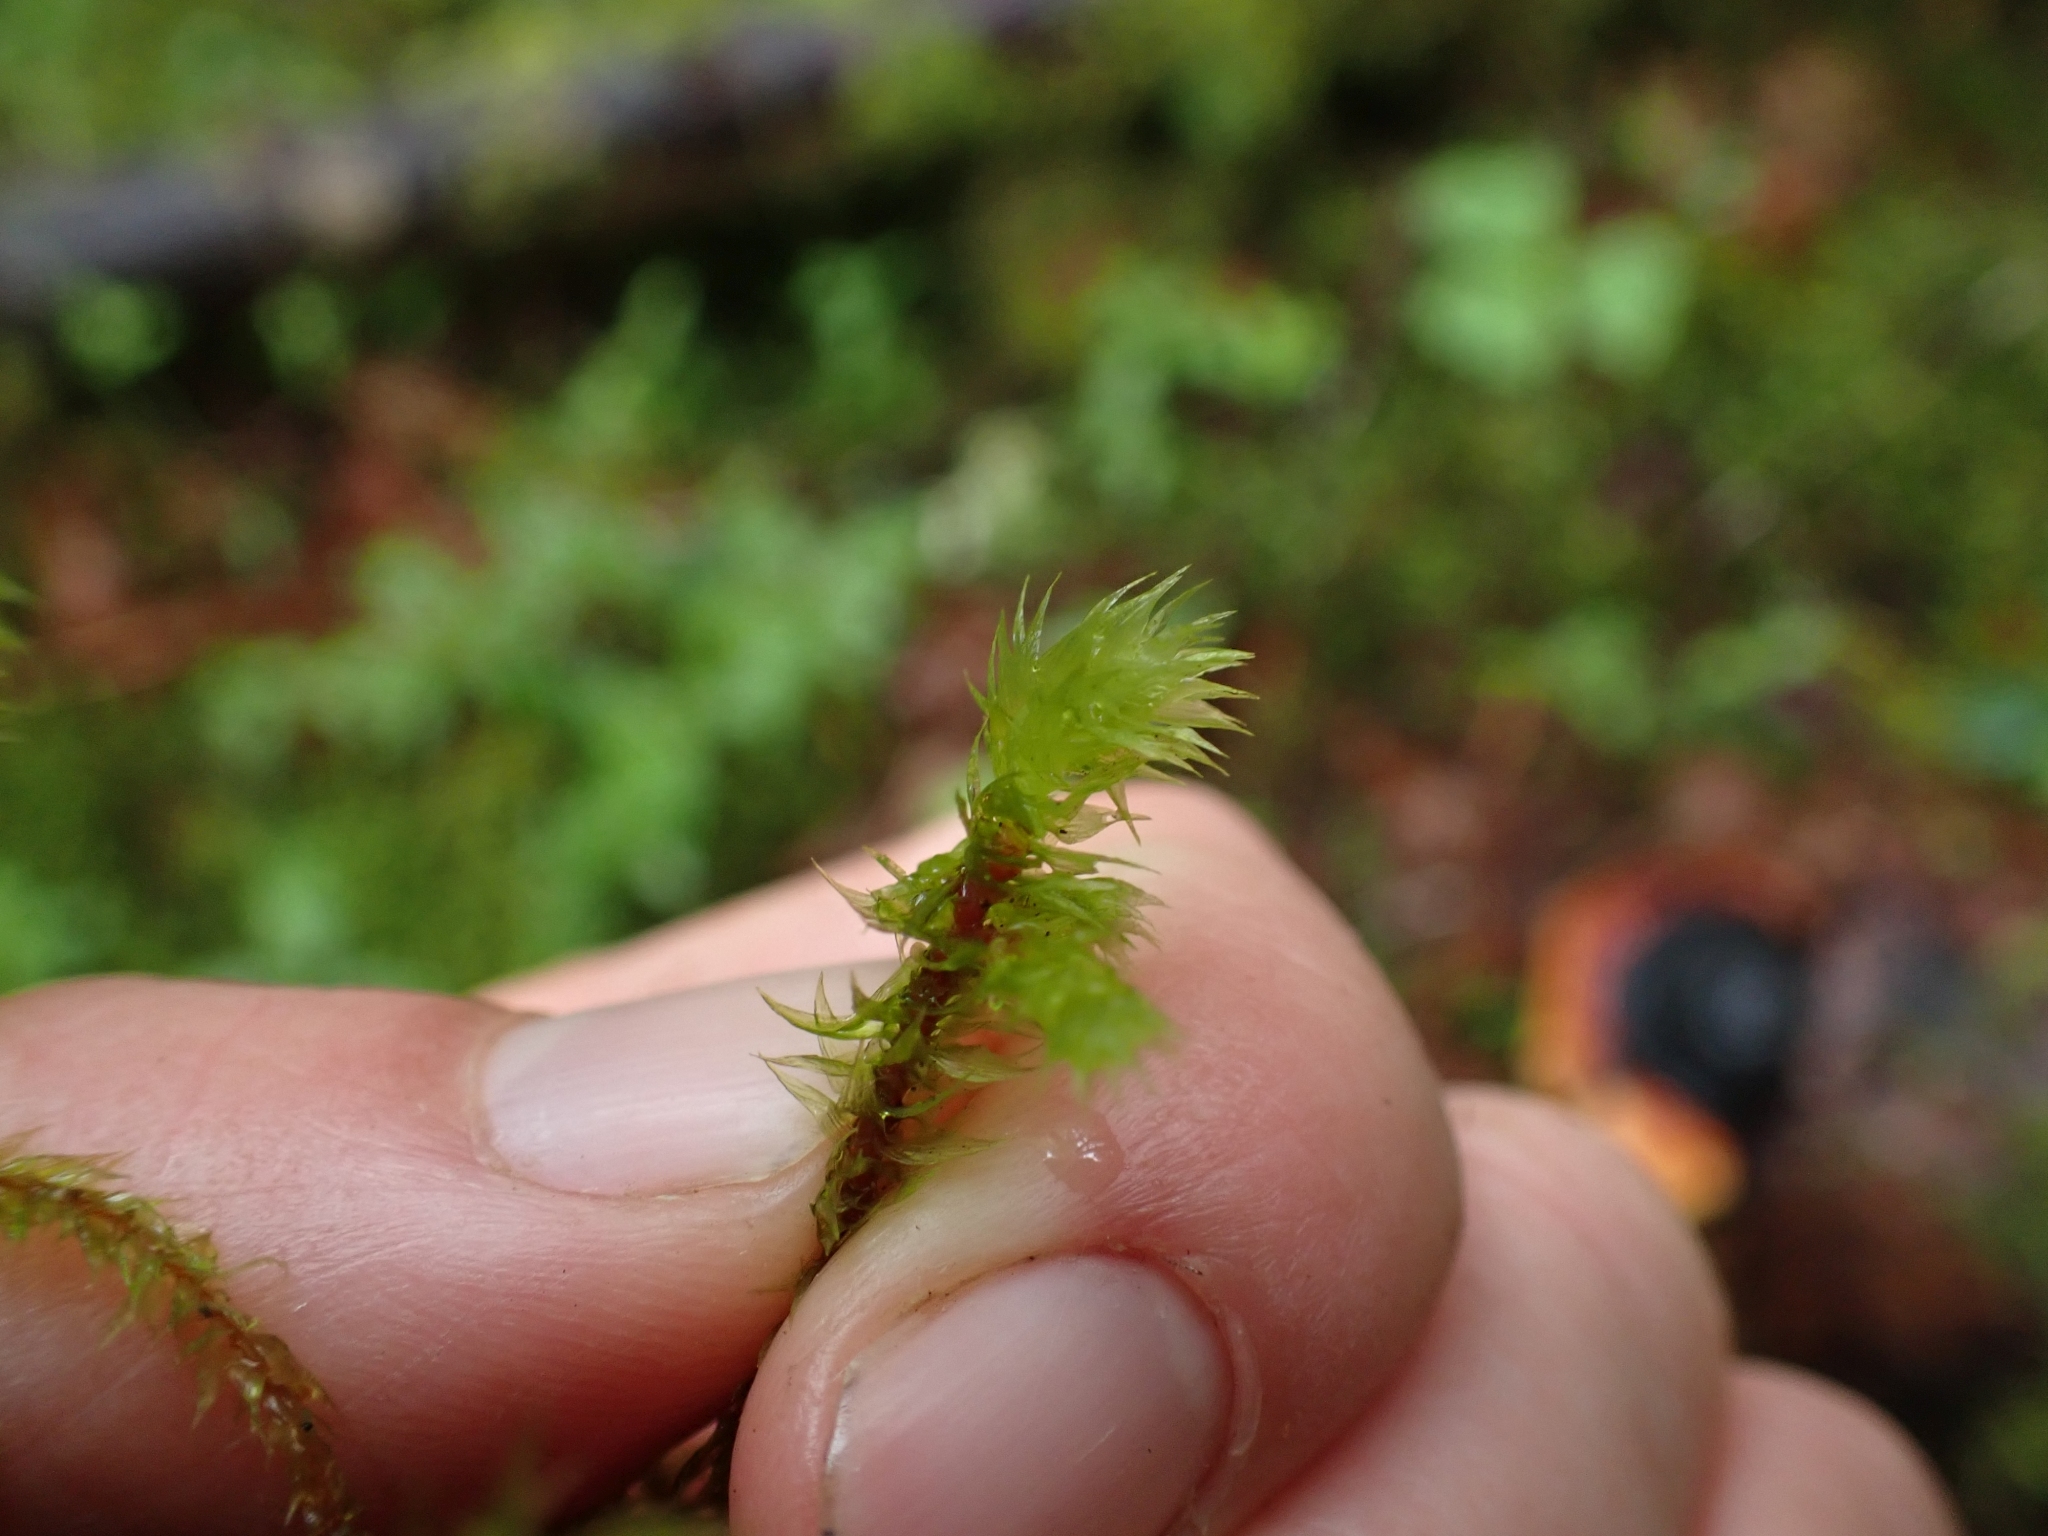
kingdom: Plantae
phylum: Bryophyta
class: Bryopsida
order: Hypnales
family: Hylocomiaceae
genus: Hylocomiadelphus
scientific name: Hylocomiadelphus triquetrus
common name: Rough goose neck moss
